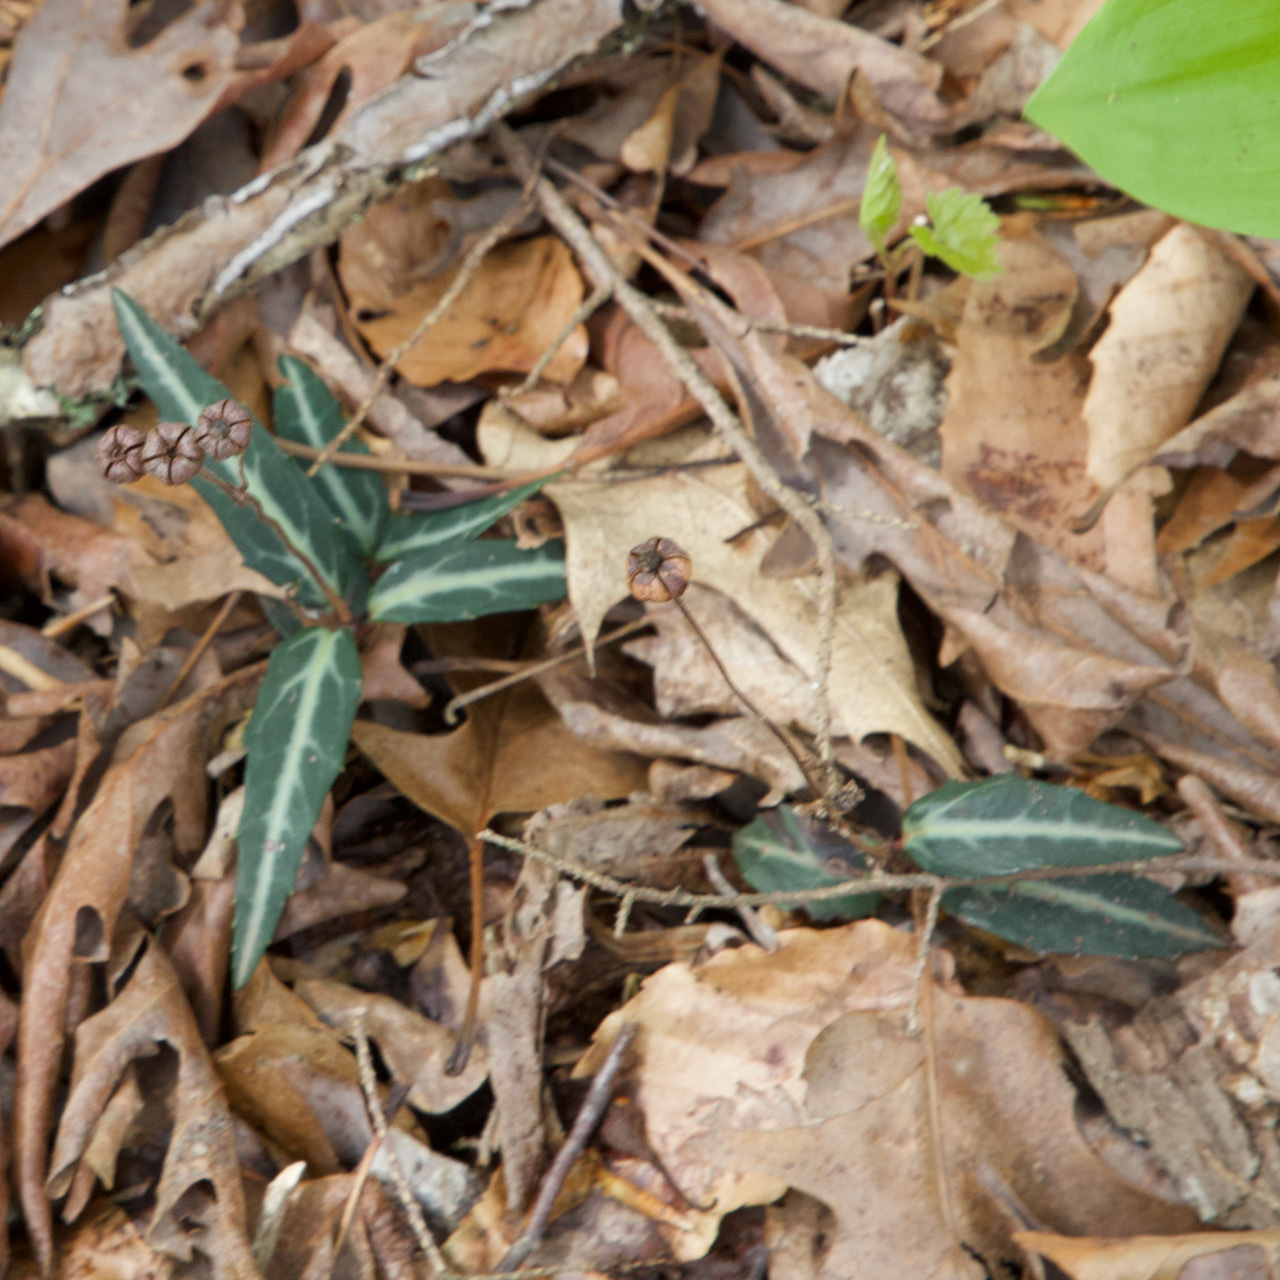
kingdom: Plantae
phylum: Tracheophyta
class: Magnoliopsida
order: Ericales
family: Ericaceae
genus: Chimaphila
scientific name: Chimaphila maculata
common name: Spotted pipsissewa
